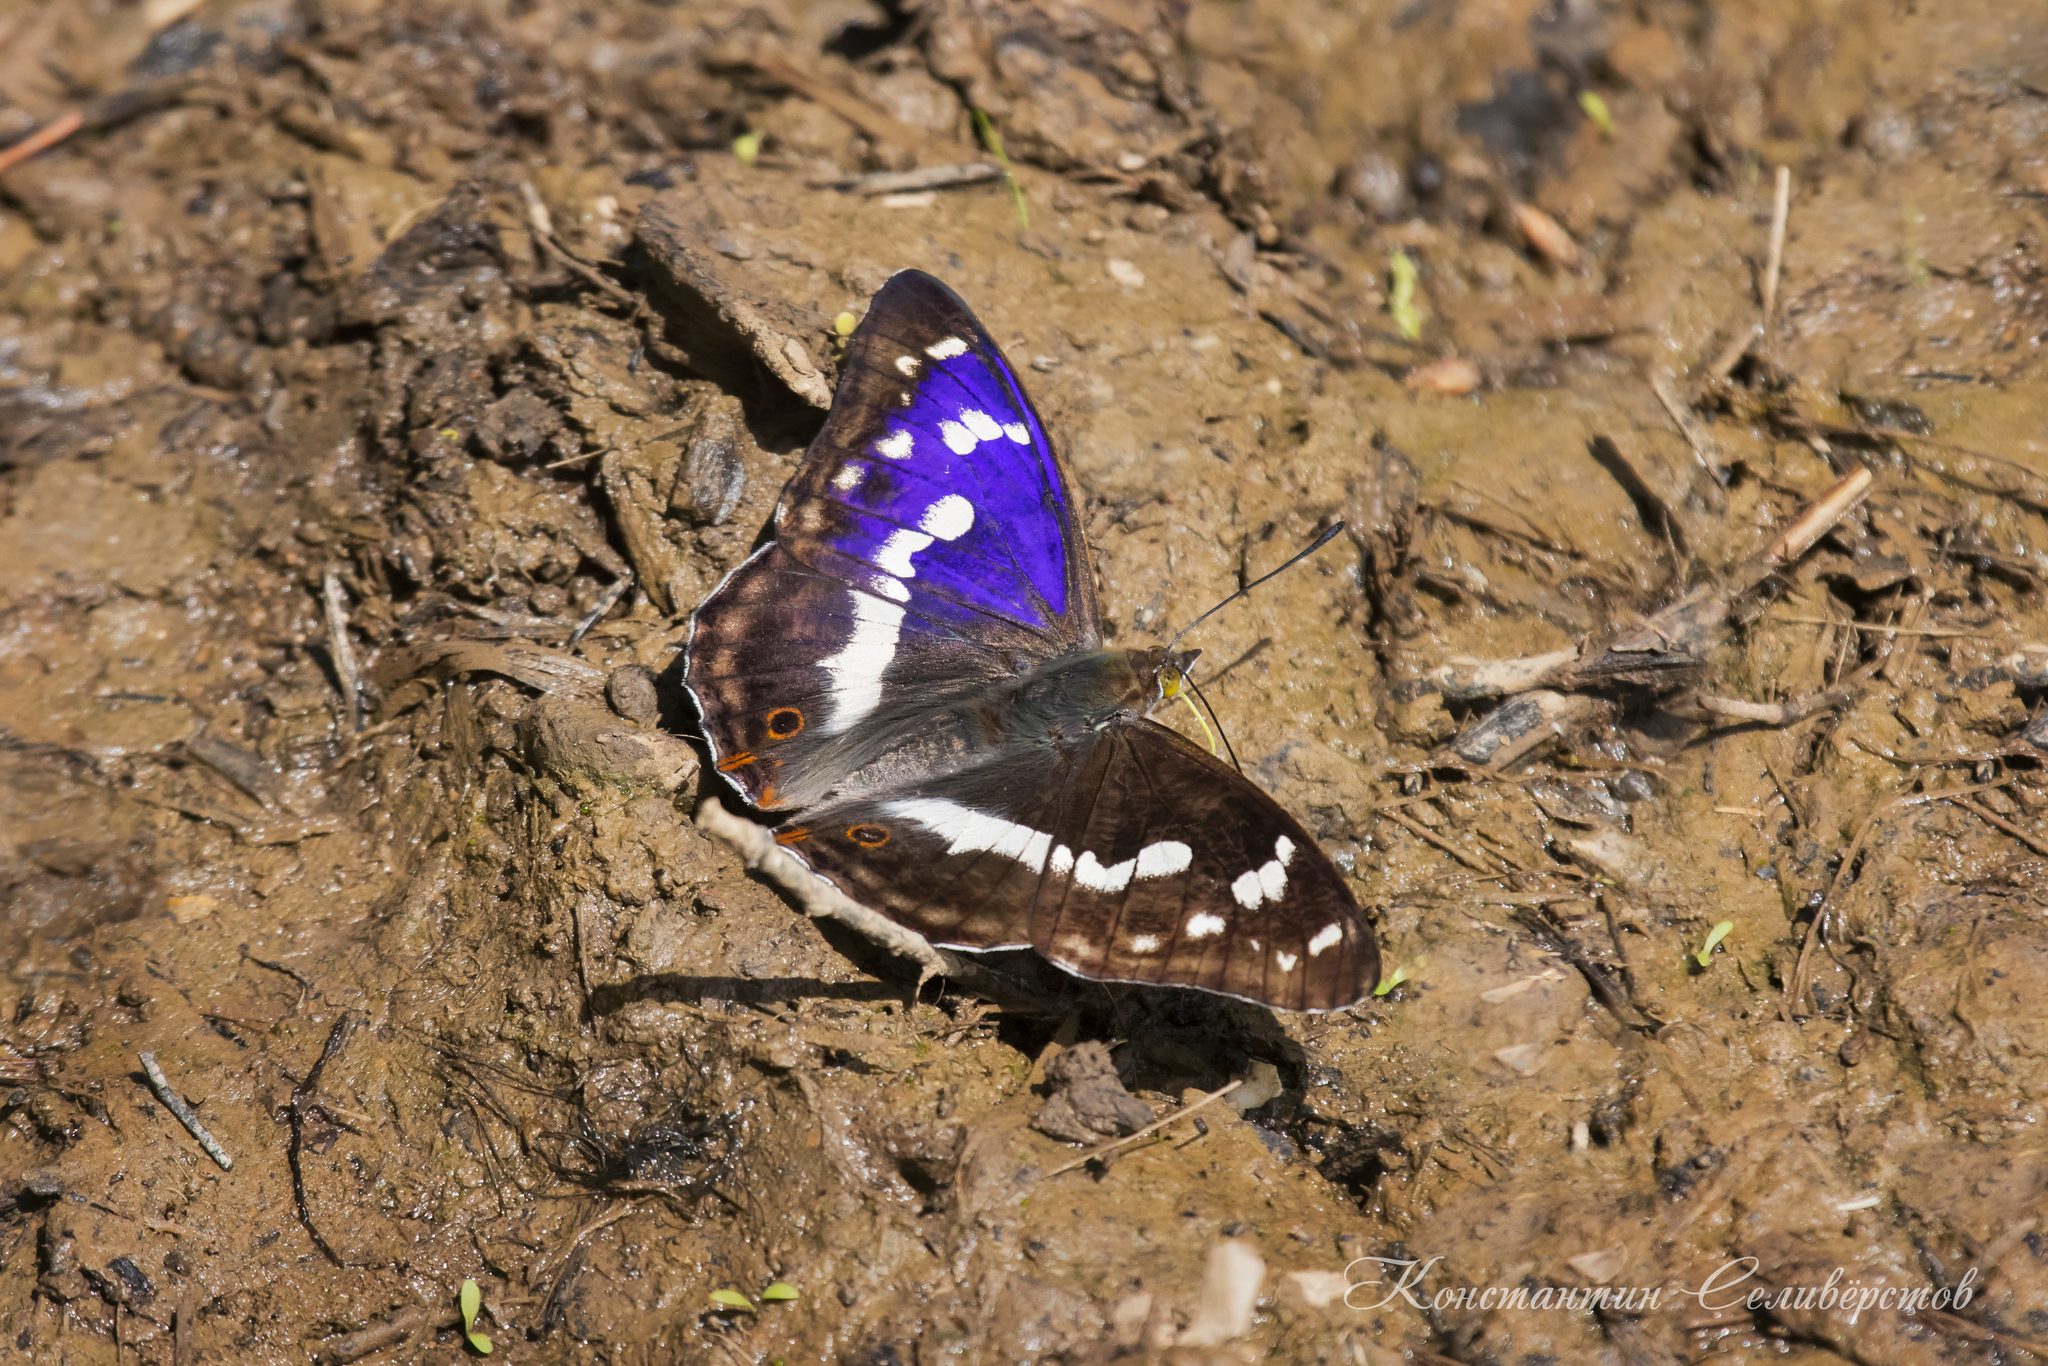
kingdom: Animalia
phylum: Arthropoda
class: Insecta
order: Lepidoptera
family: Nymphalidae
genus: Apatura
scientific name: Apatura iris
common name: Purple emperor
